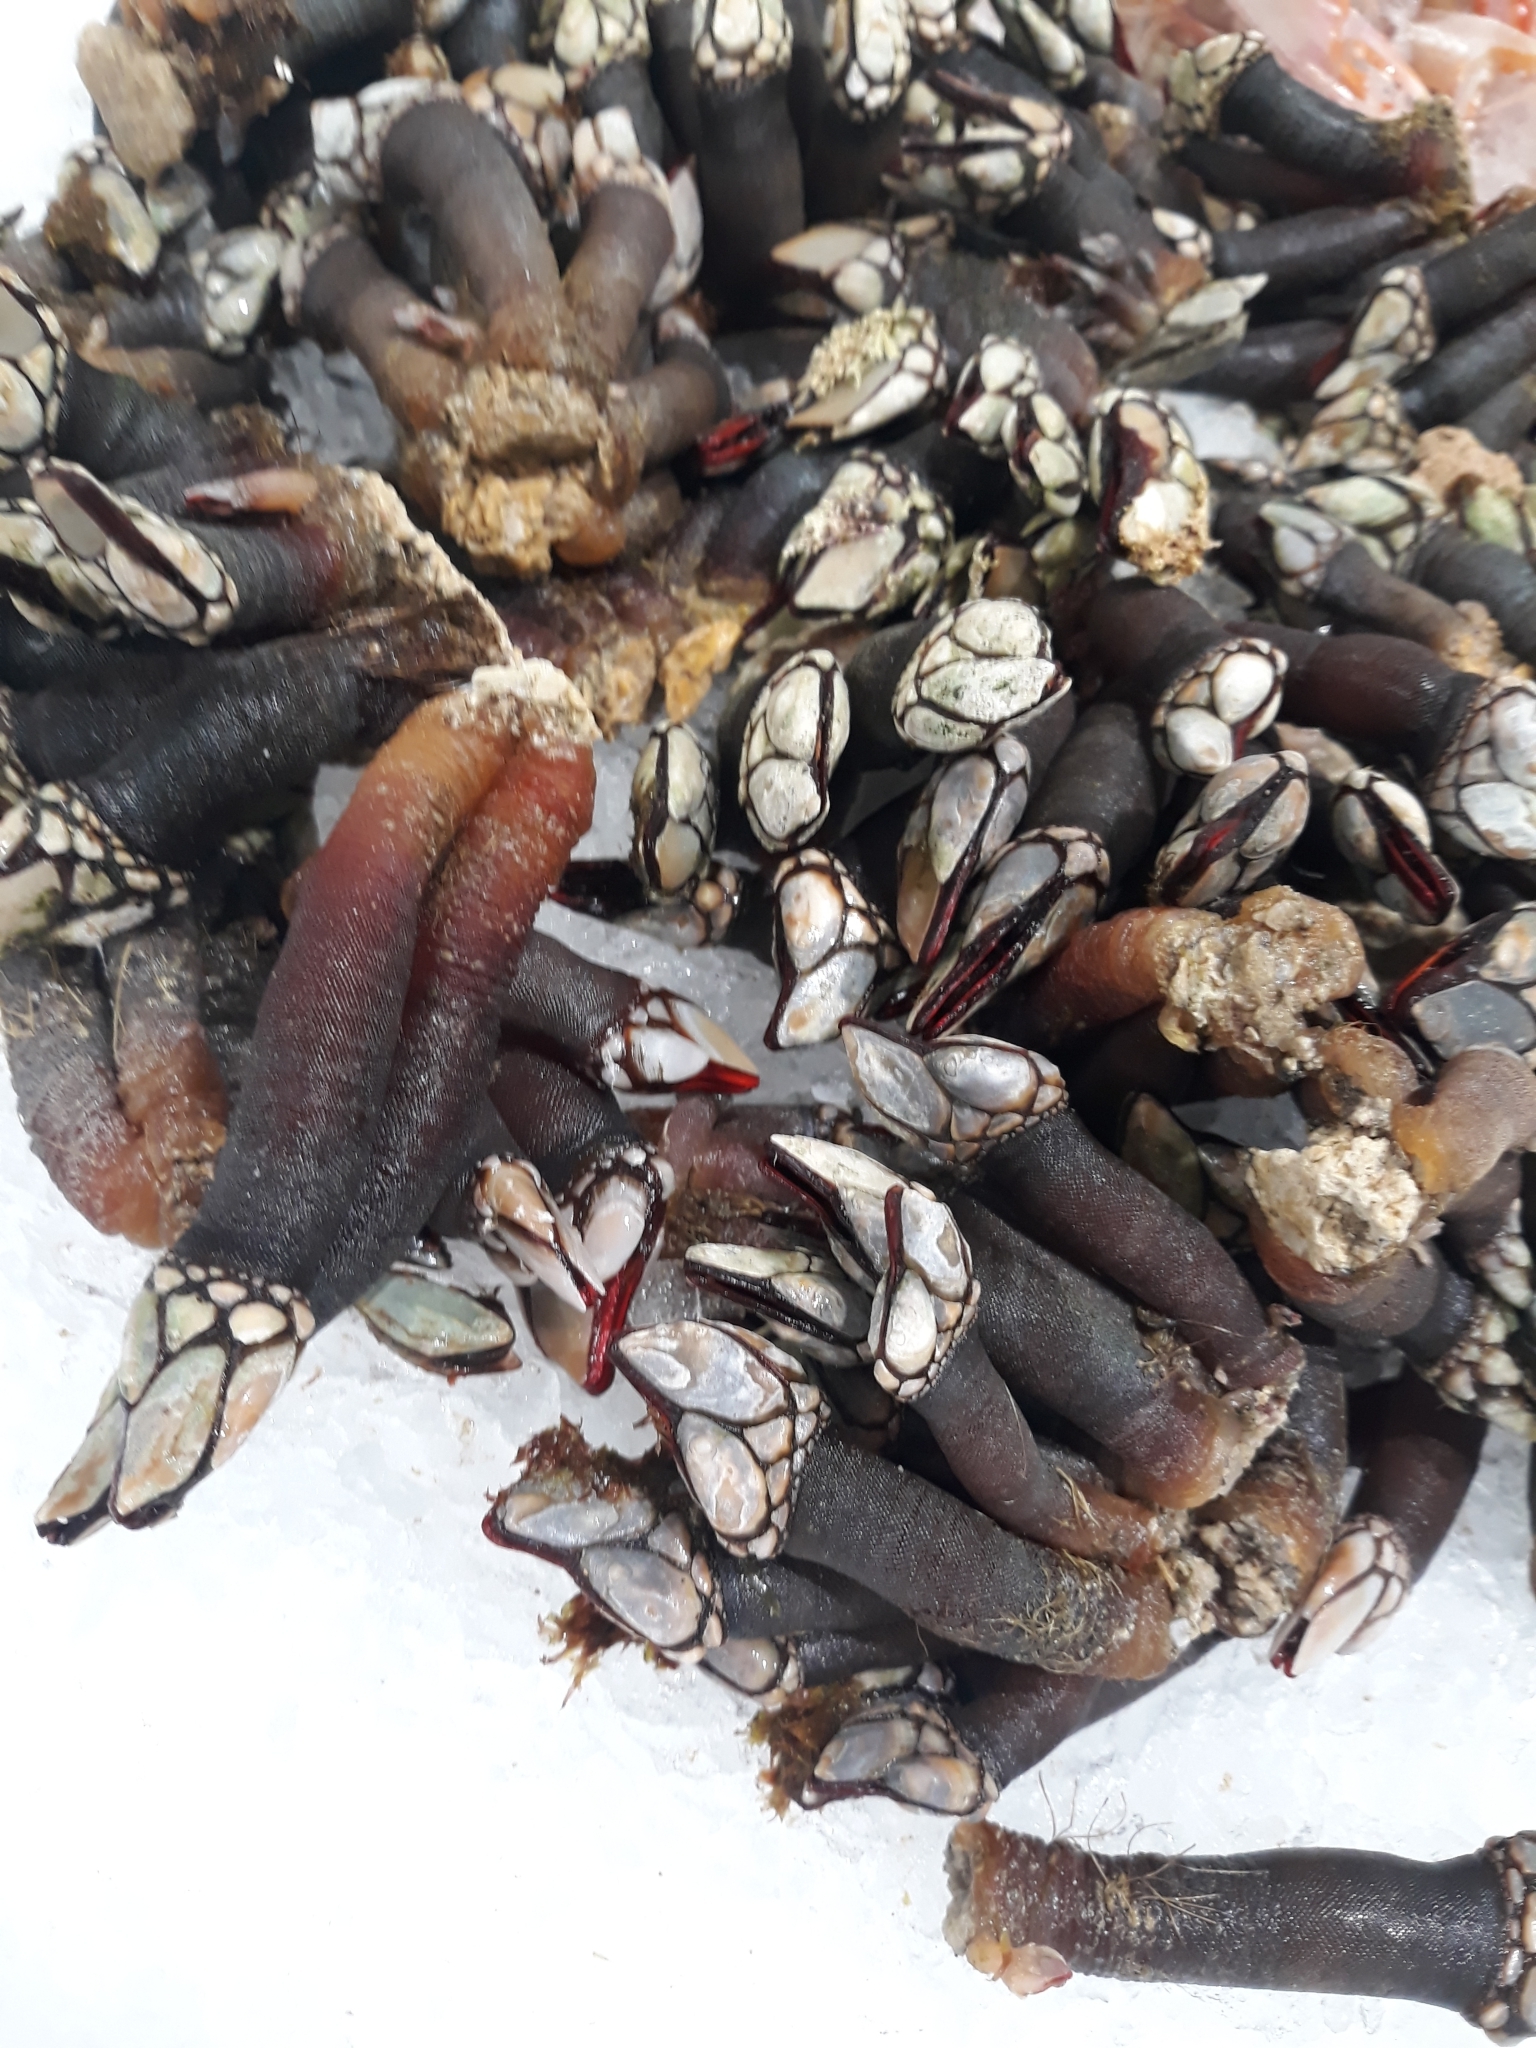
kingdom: Animalia
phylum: Arthropoda
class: Maxillopoda
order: Pedunculata
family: Pollicipedidae
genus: Pollicipes
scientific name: Pollicipes pollicipes
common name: Gooseneck barnacle
